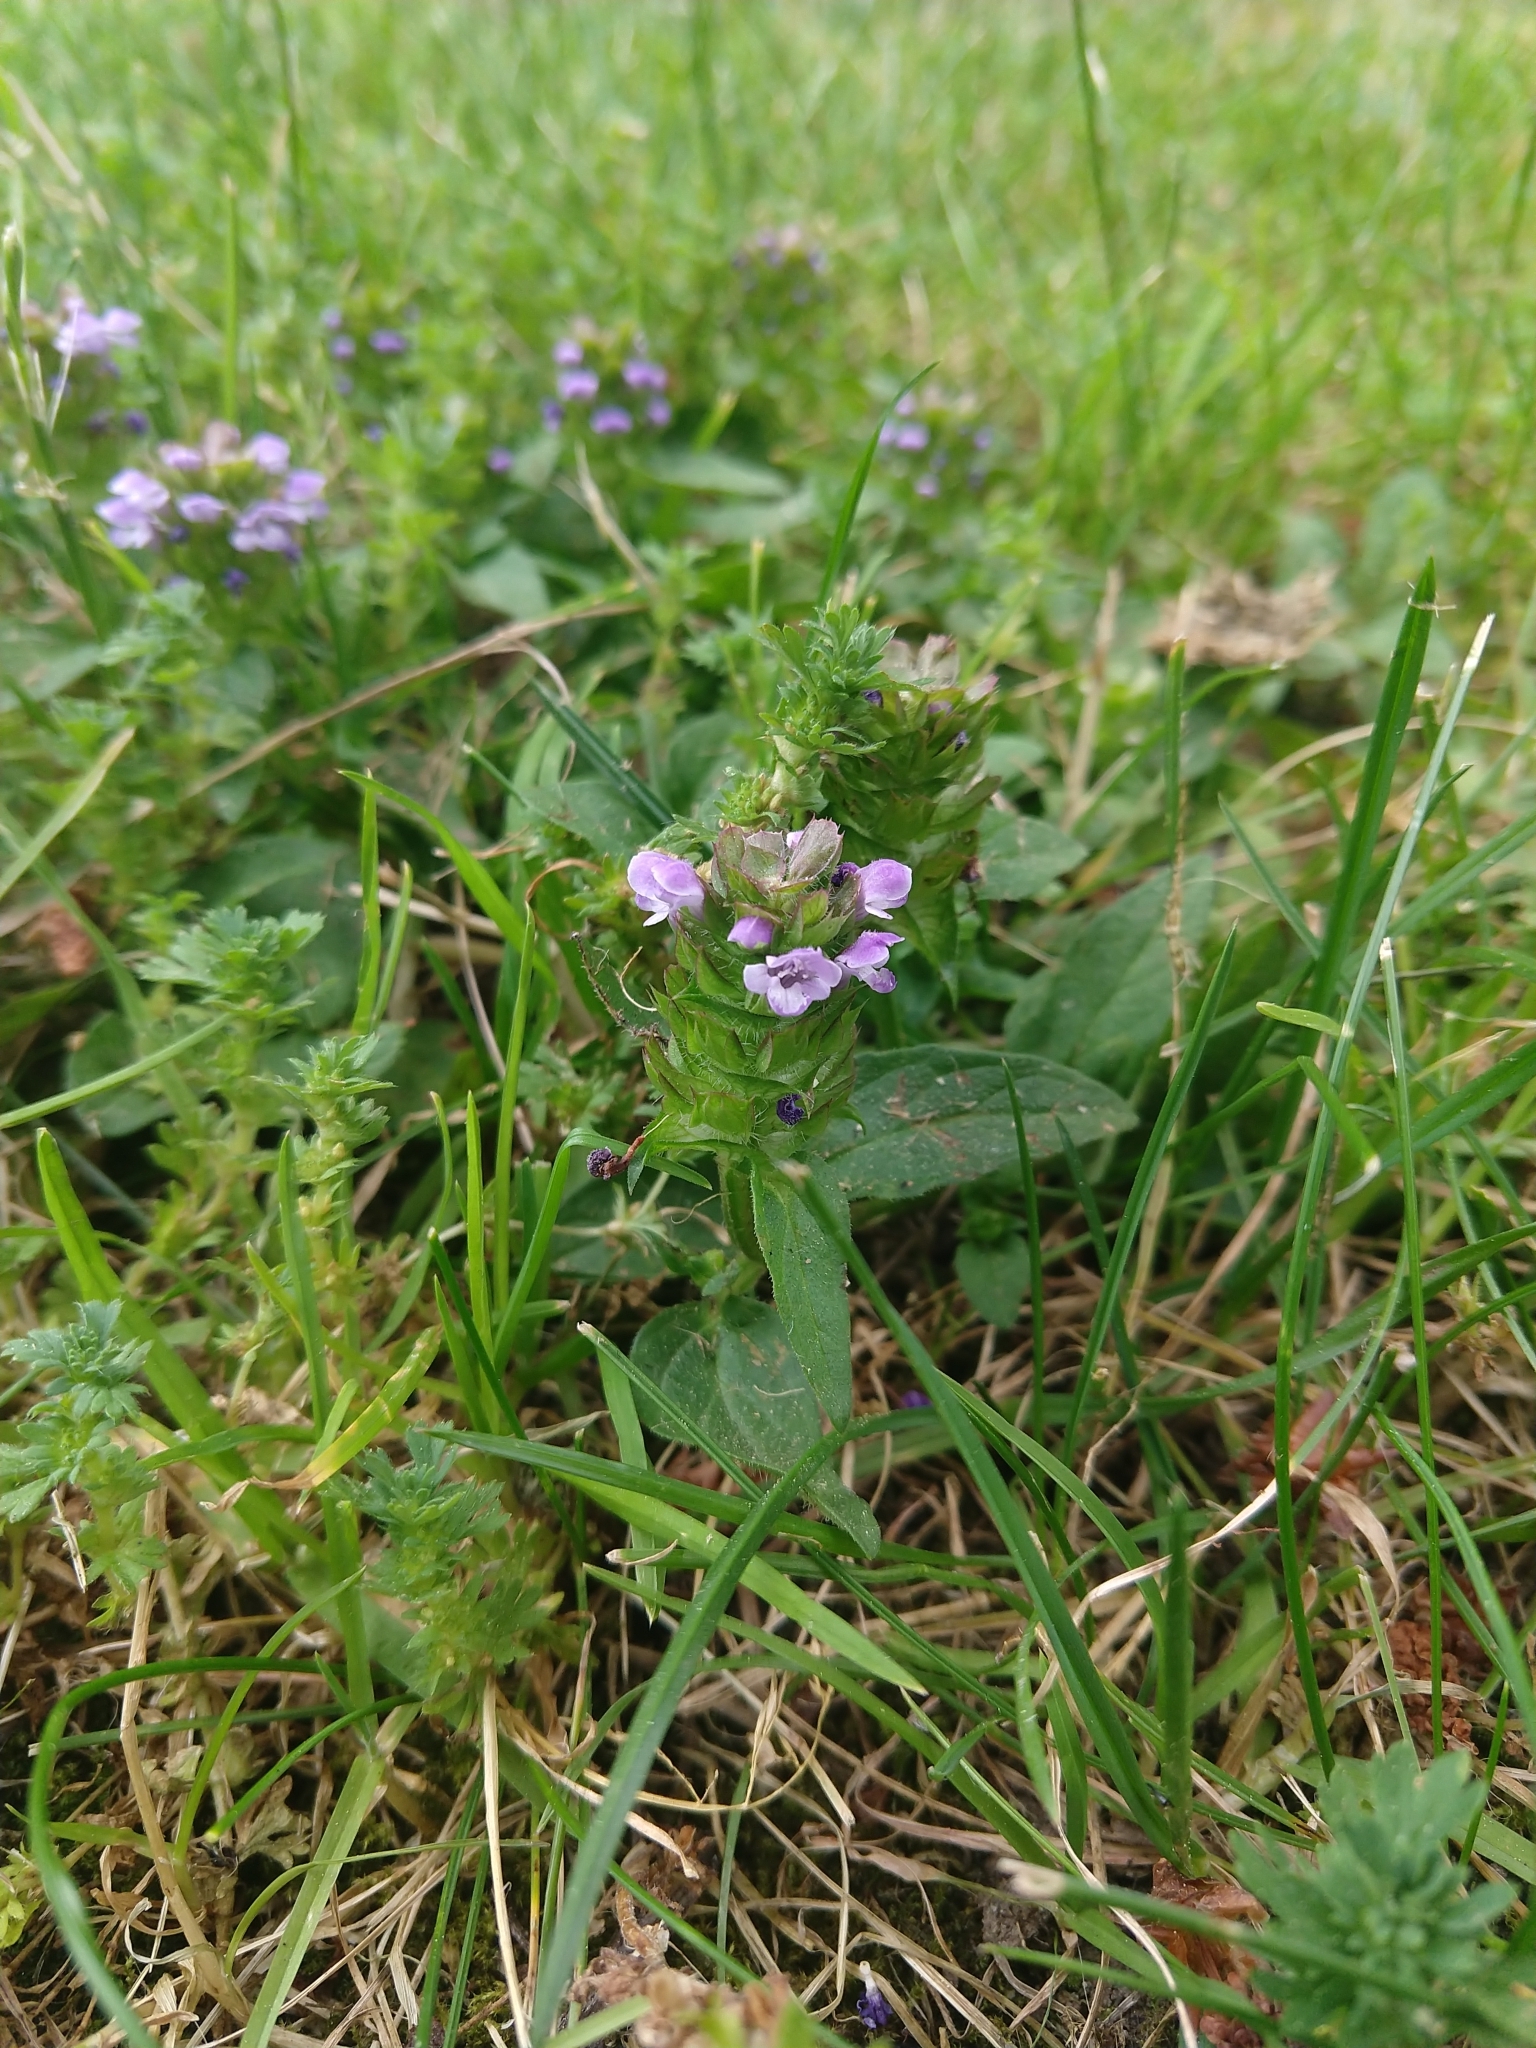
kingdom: Plantae
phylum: Tracheophyta
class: Magnoliopsida
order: Lamiales
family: Lamiaceae
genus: Prunella
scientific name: Prunella vulgaris
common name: Heal-all
